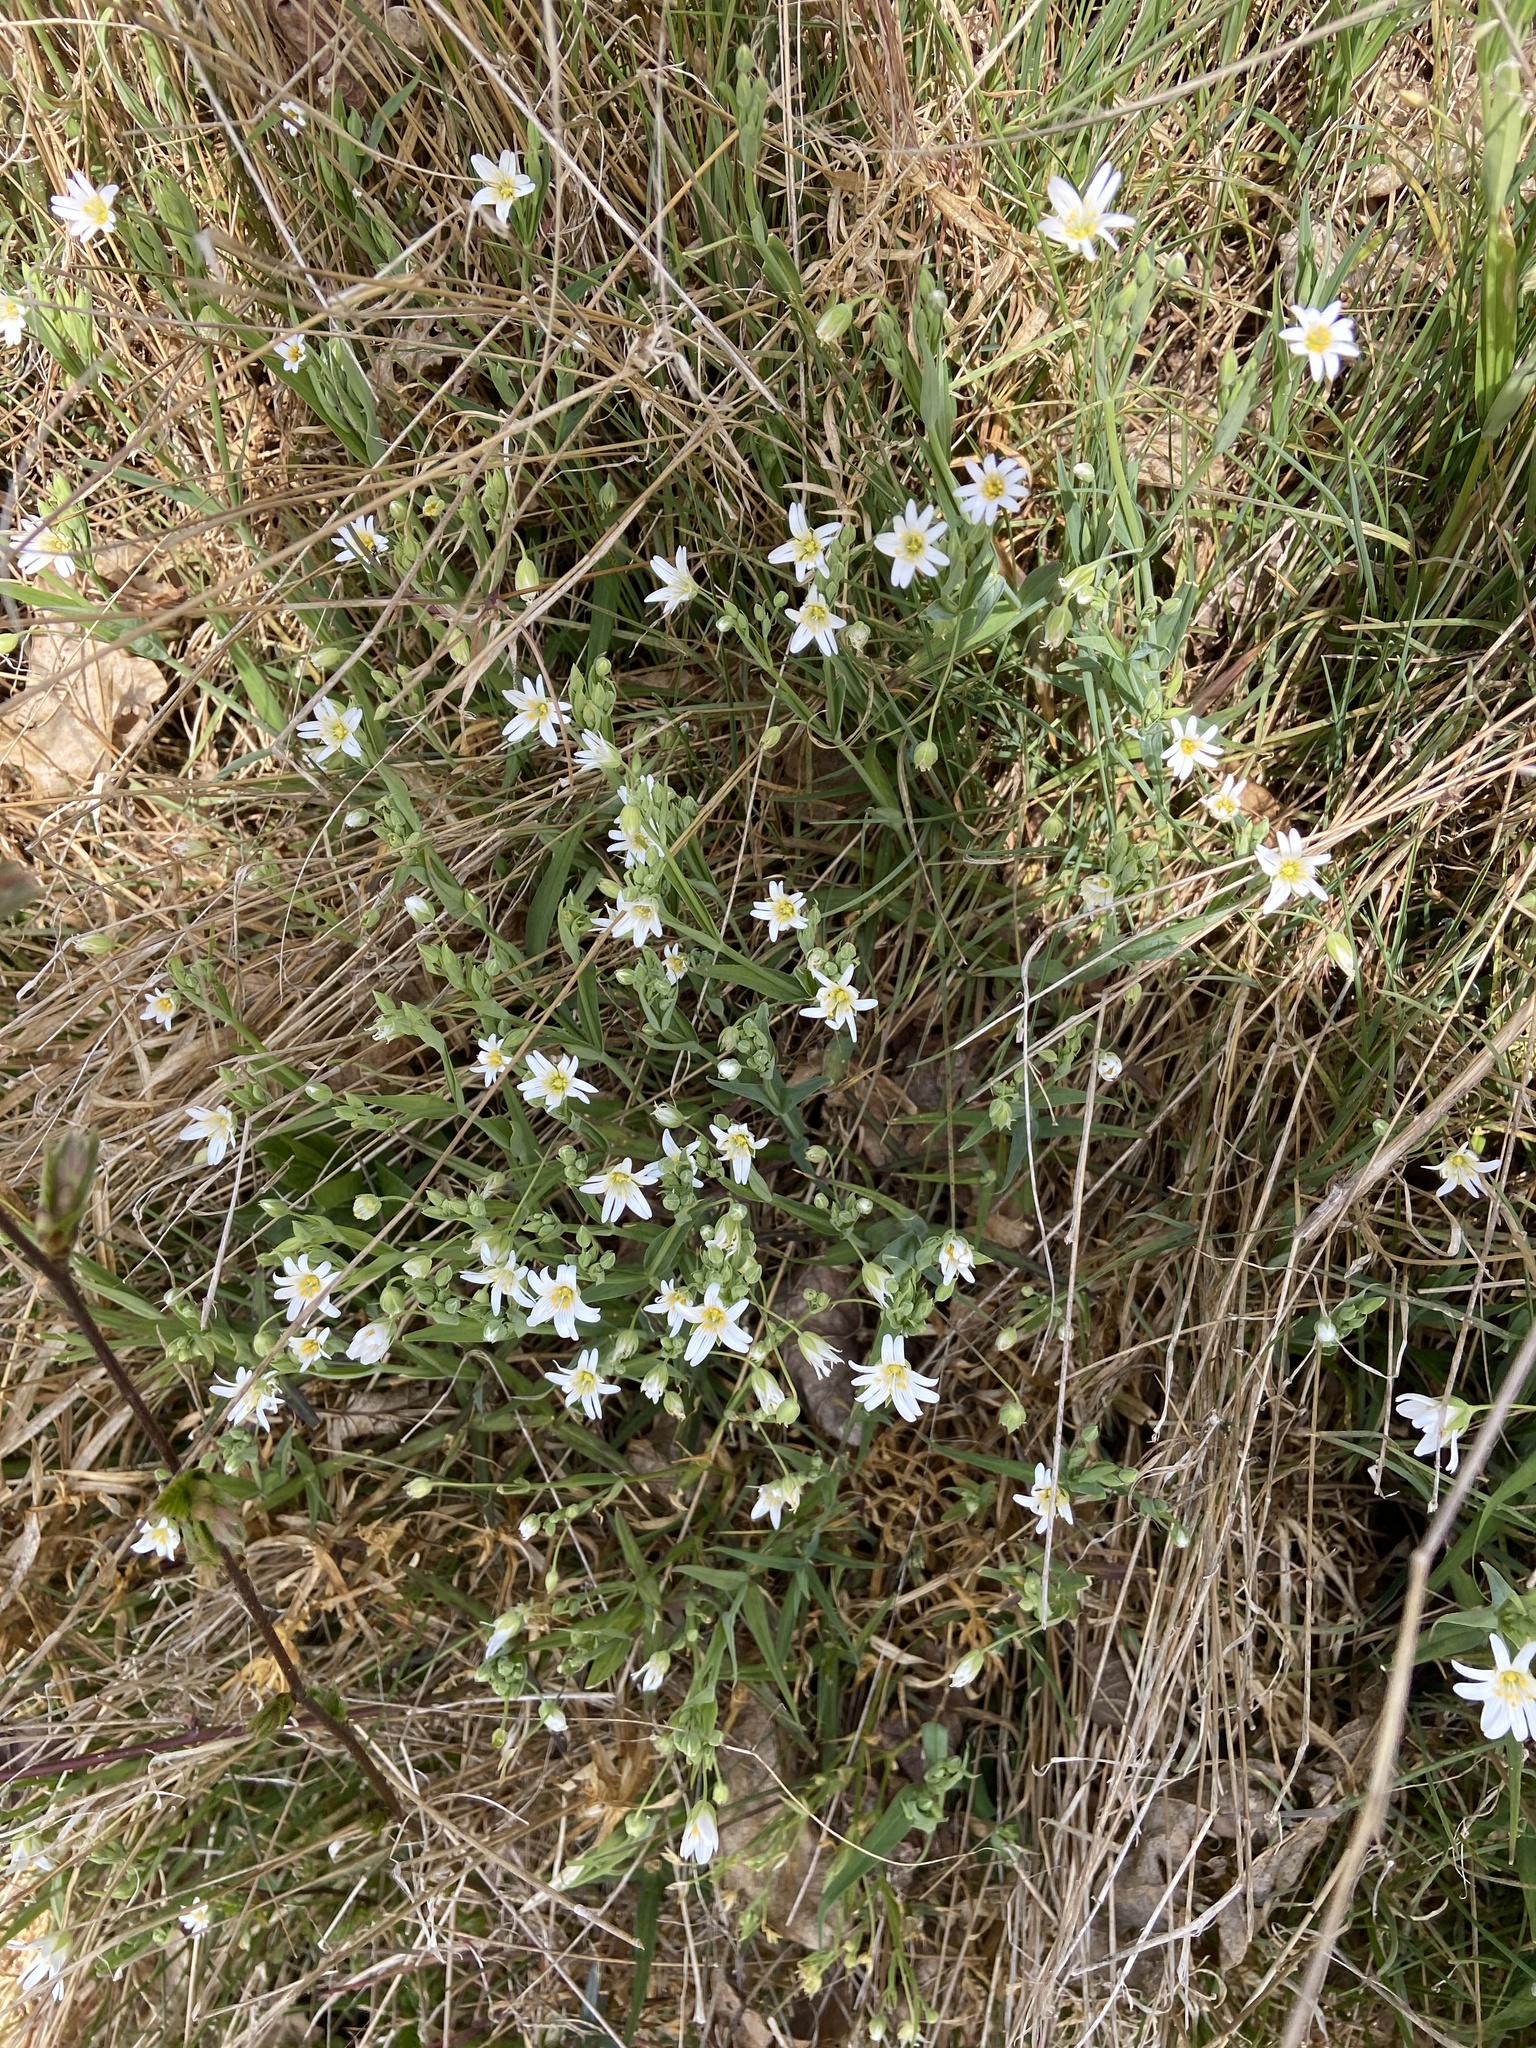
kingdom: Plantae
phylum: Tracheophyta
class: Magnoliopsida
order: Caryophyllales
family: Caryophyllaceae
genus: Rabelera
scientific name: Rabelera holostea
